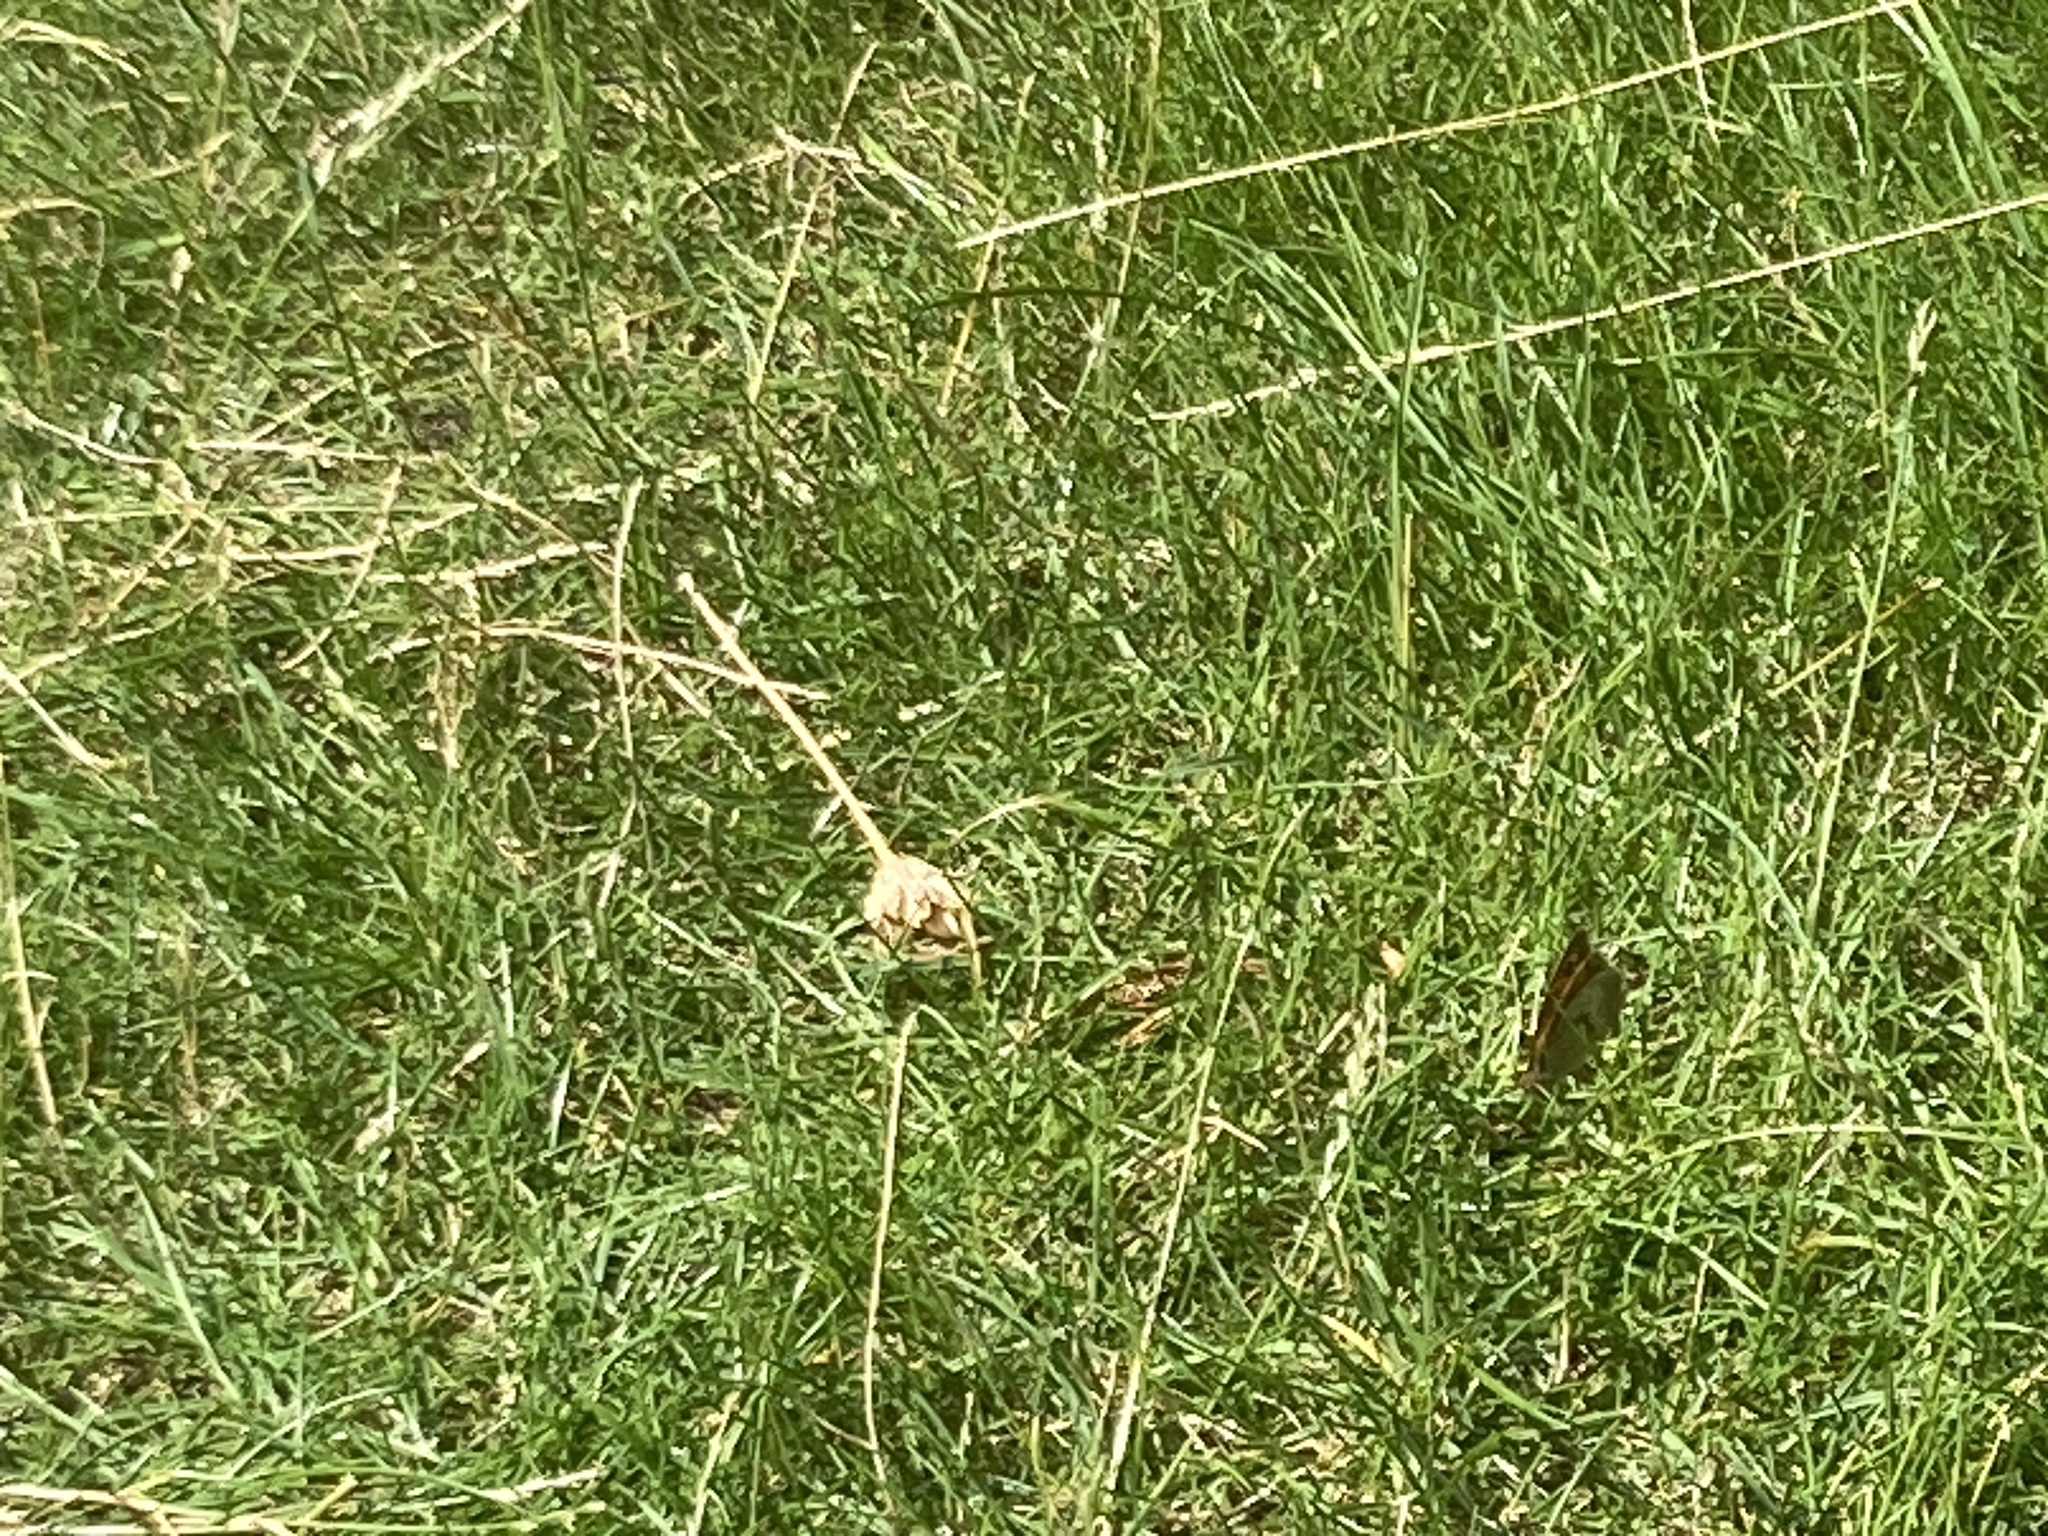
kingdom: Animalia
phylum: Arthropoda
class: Insecta
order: Lepidoptera
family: Nymphalidae
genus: Maniola
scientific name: Maniola jurtina
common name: Meadow brown
